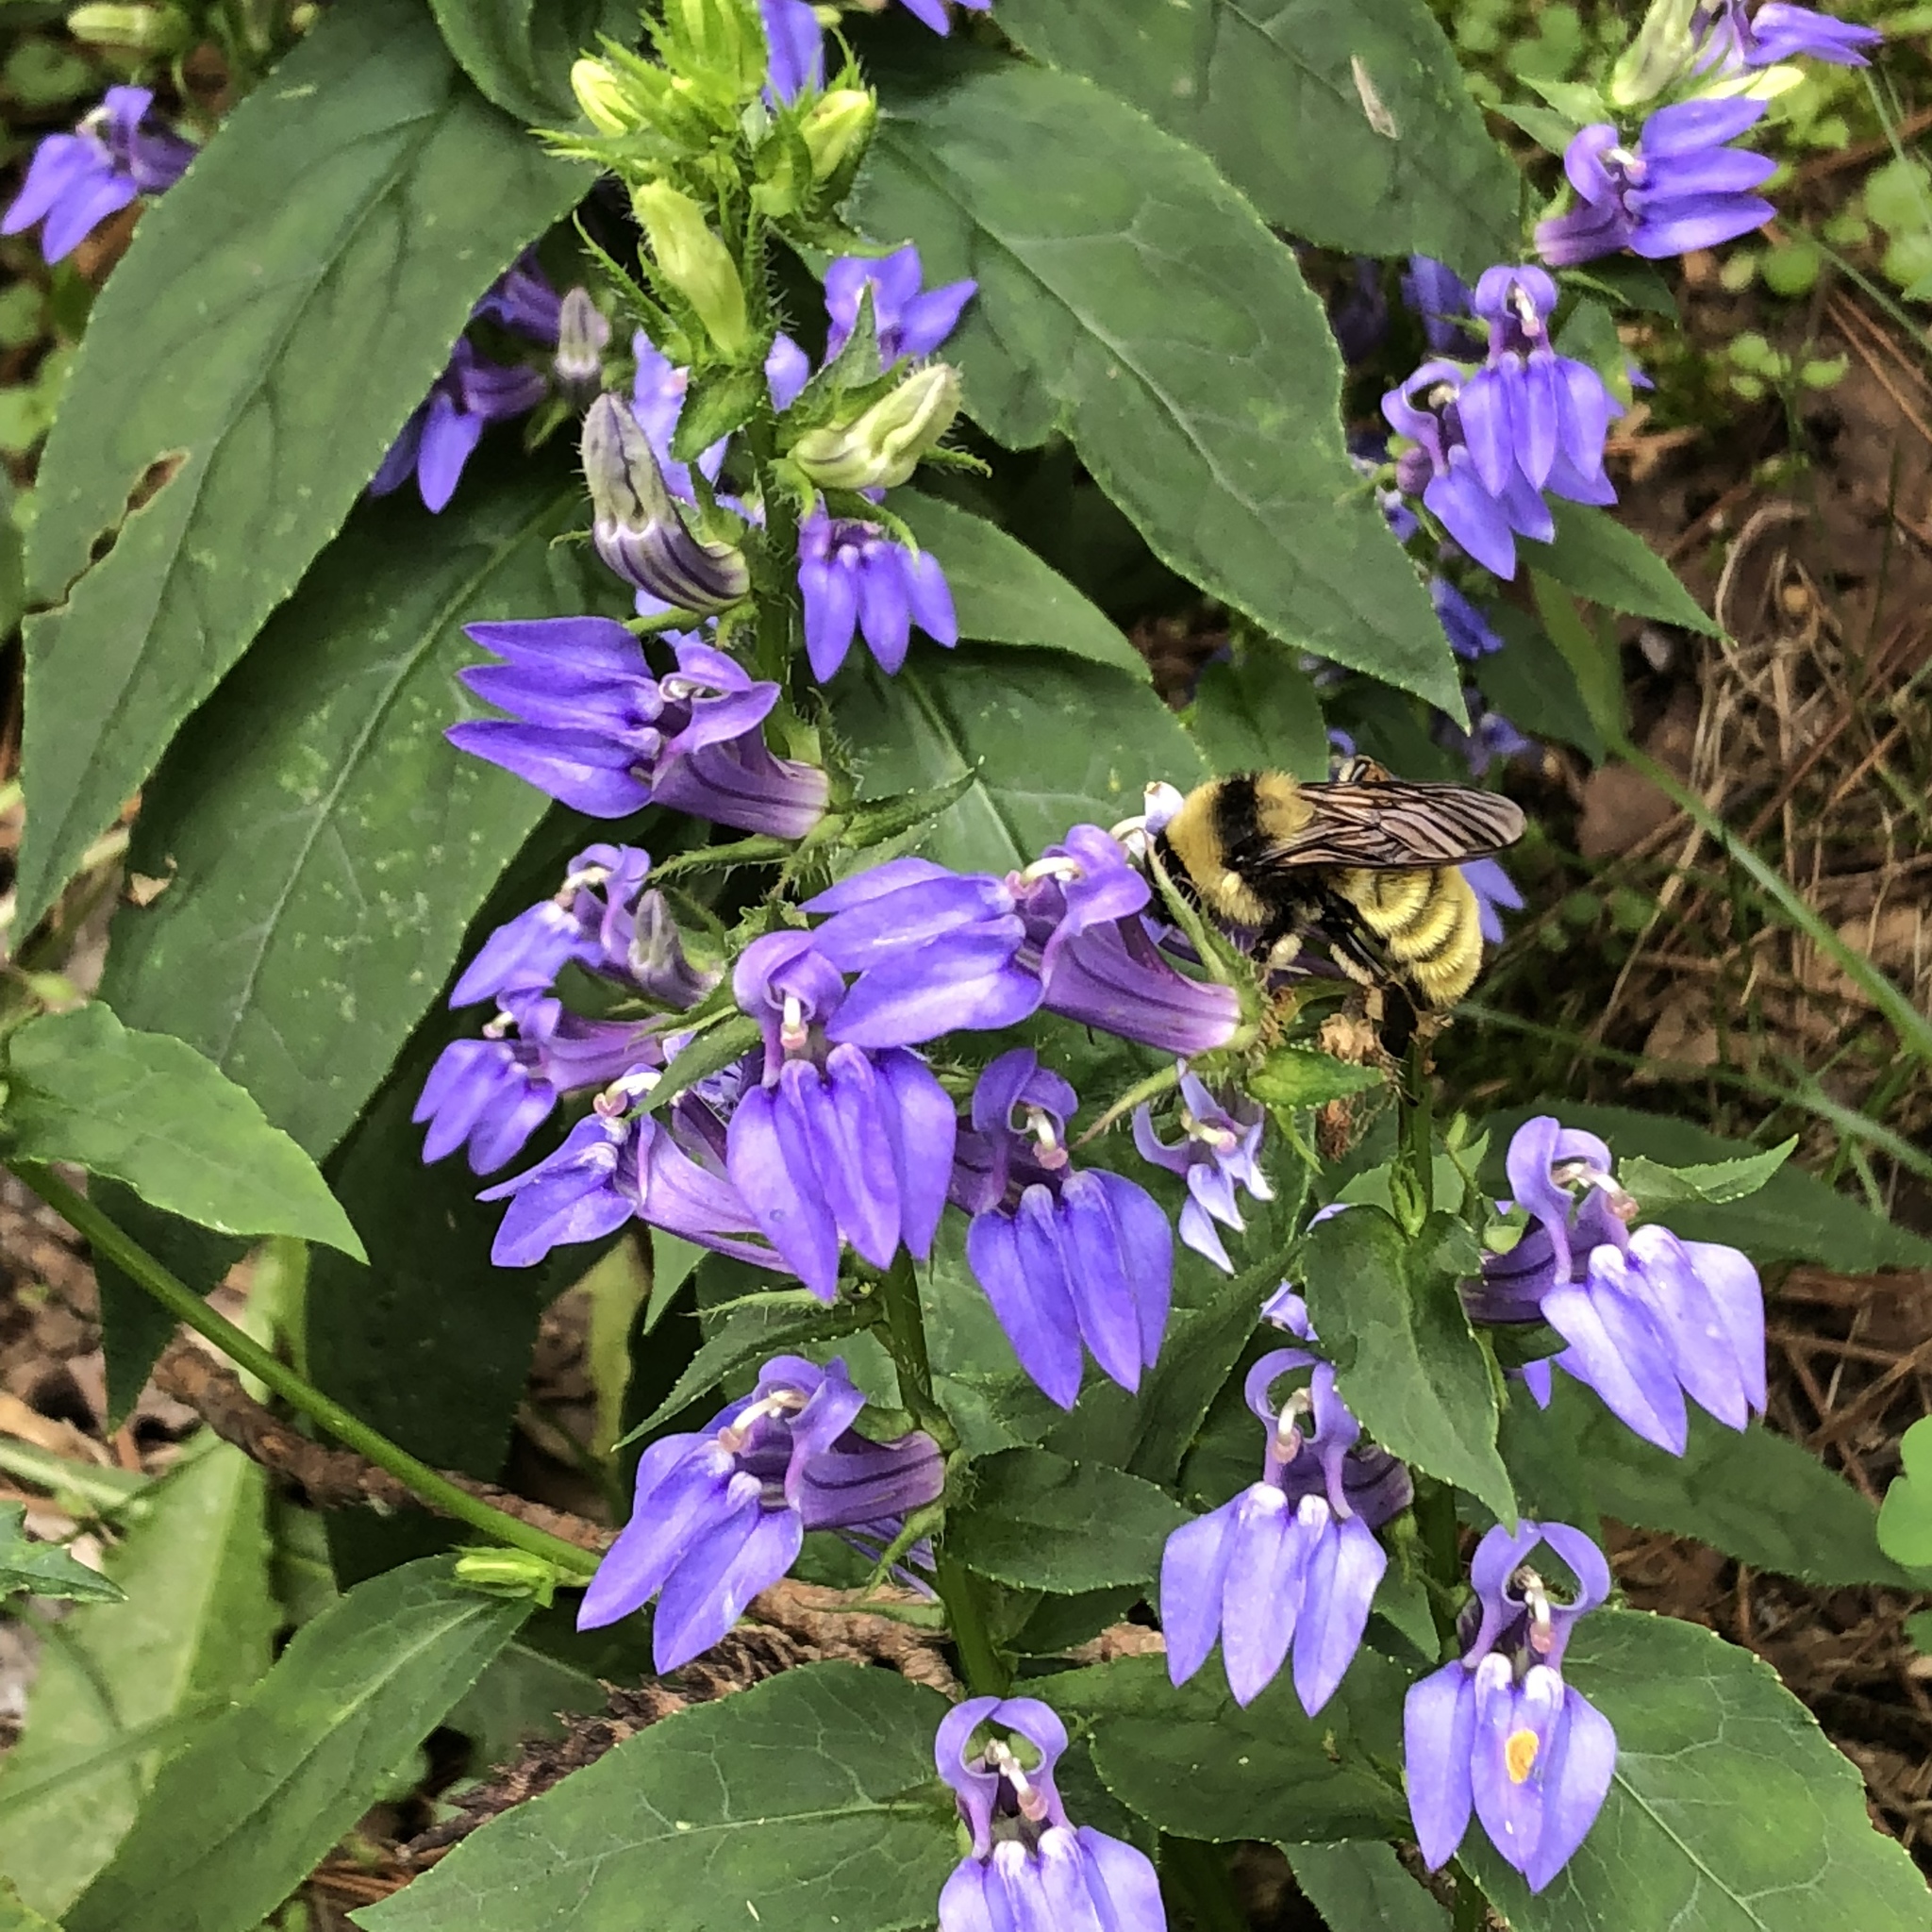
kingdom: Animalia
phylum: Arthropoda
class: Insecta
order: Hymenoptera
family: Apidae
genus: Bombus
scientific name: Bombus pensylvanicus
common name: Bumble bee
